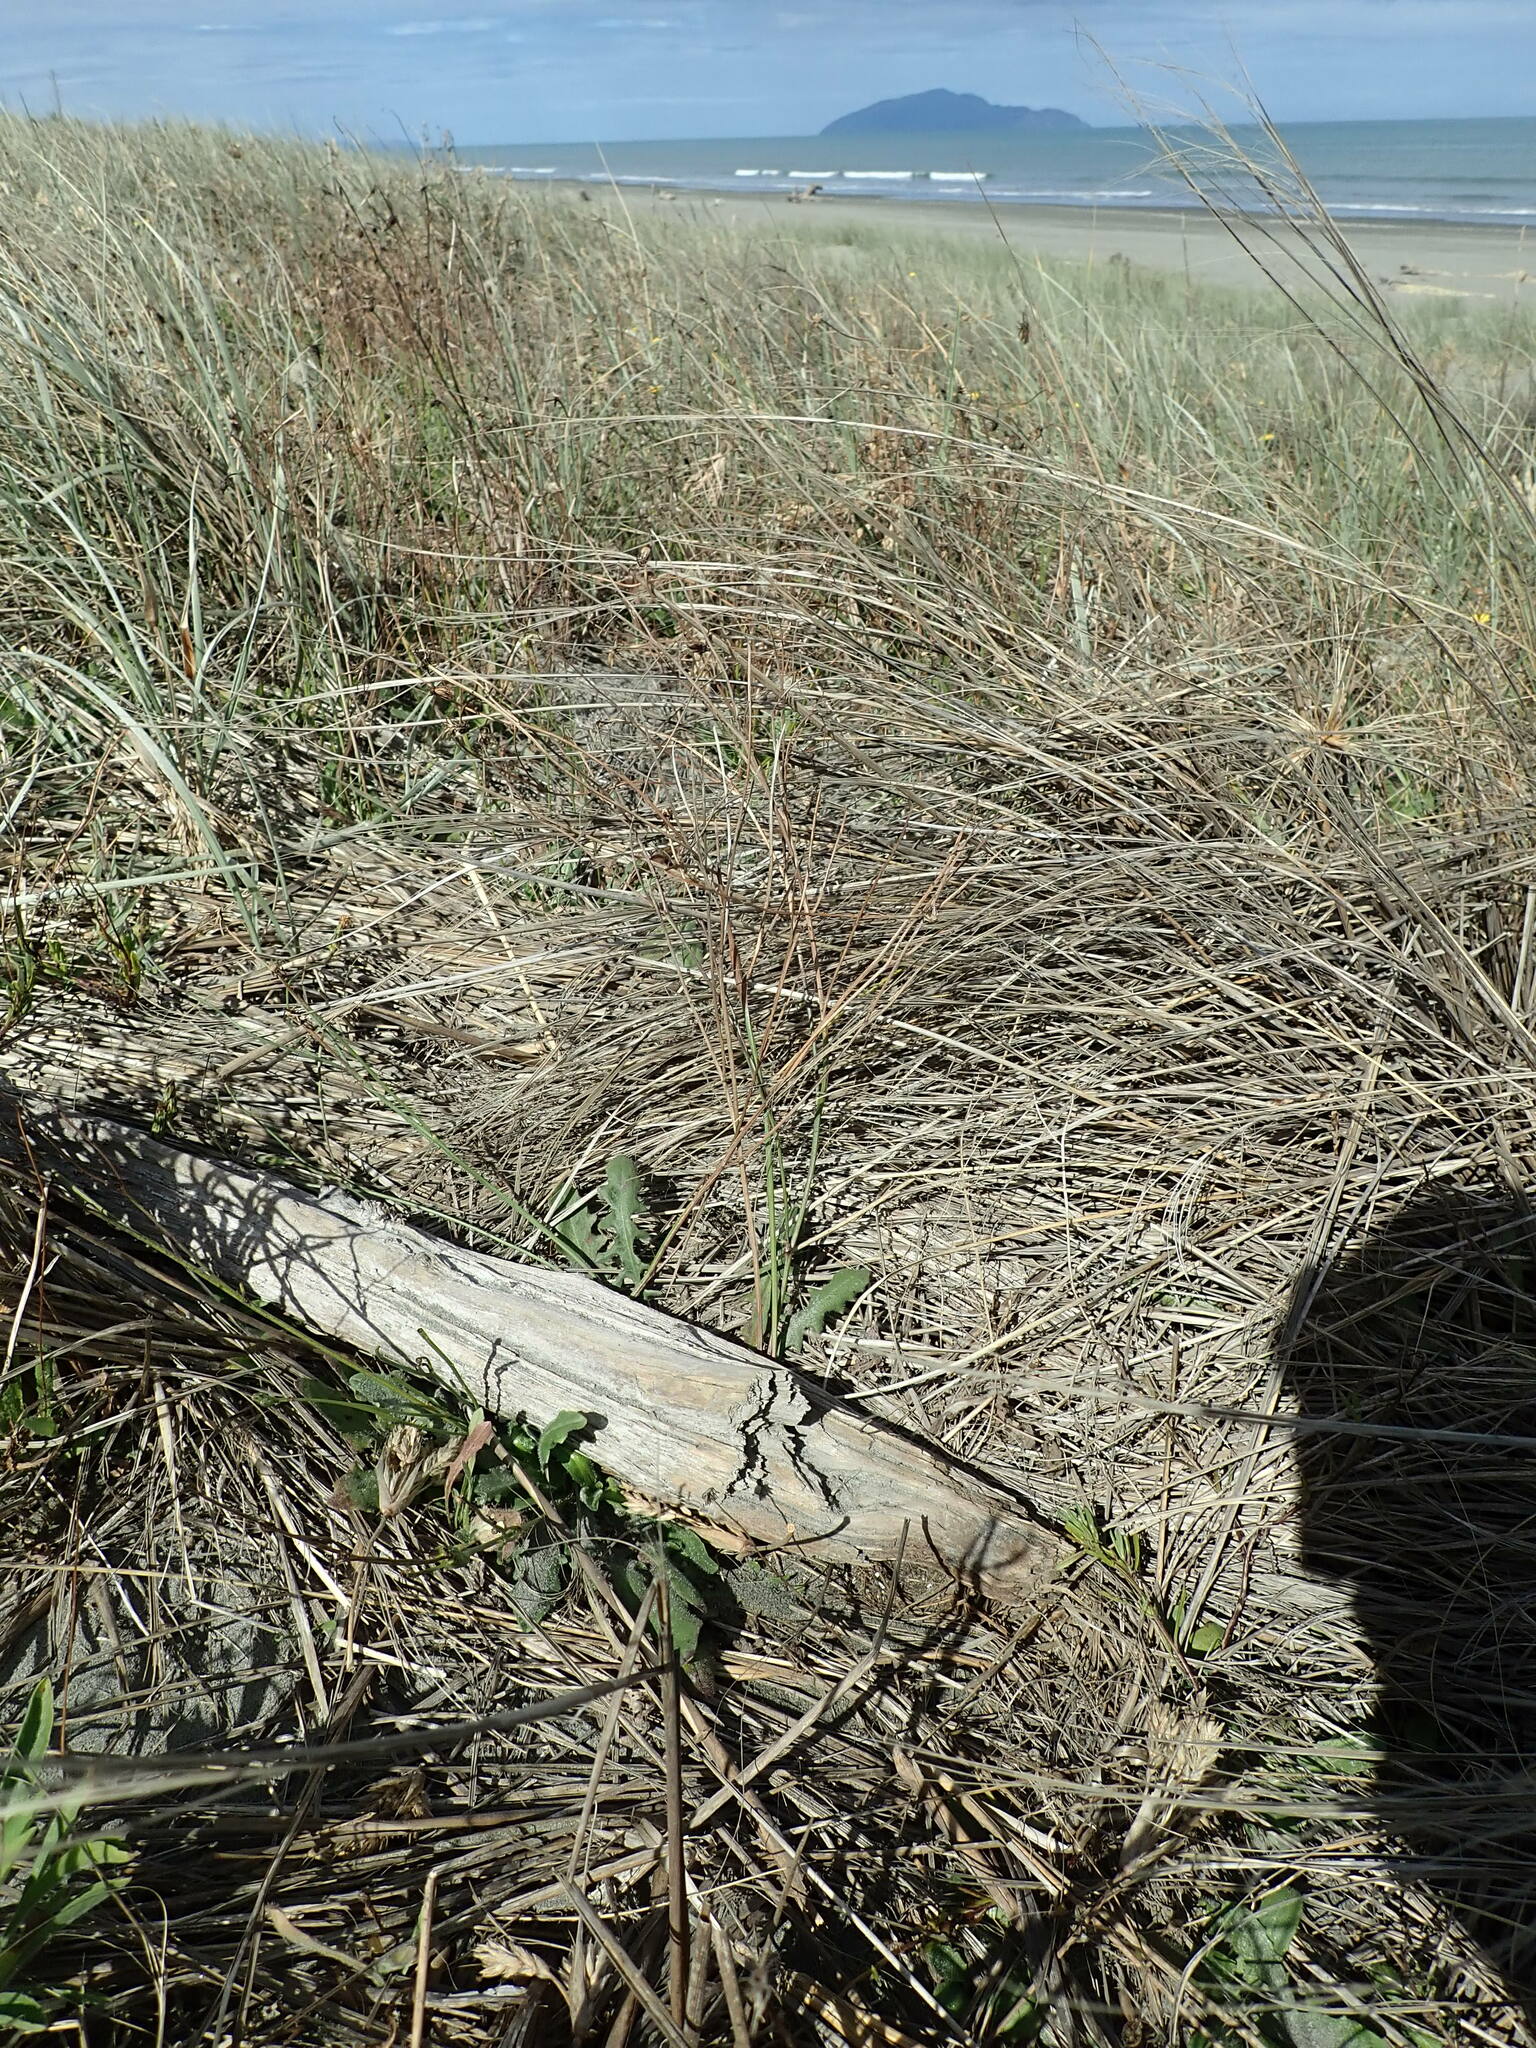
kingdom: Animalia
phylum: Arthropoda
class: Malacostraca
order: Isopoda
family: Porcellionidae
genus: Porcellio
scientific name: Porcellio scaber
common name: Common rough woodlouse
